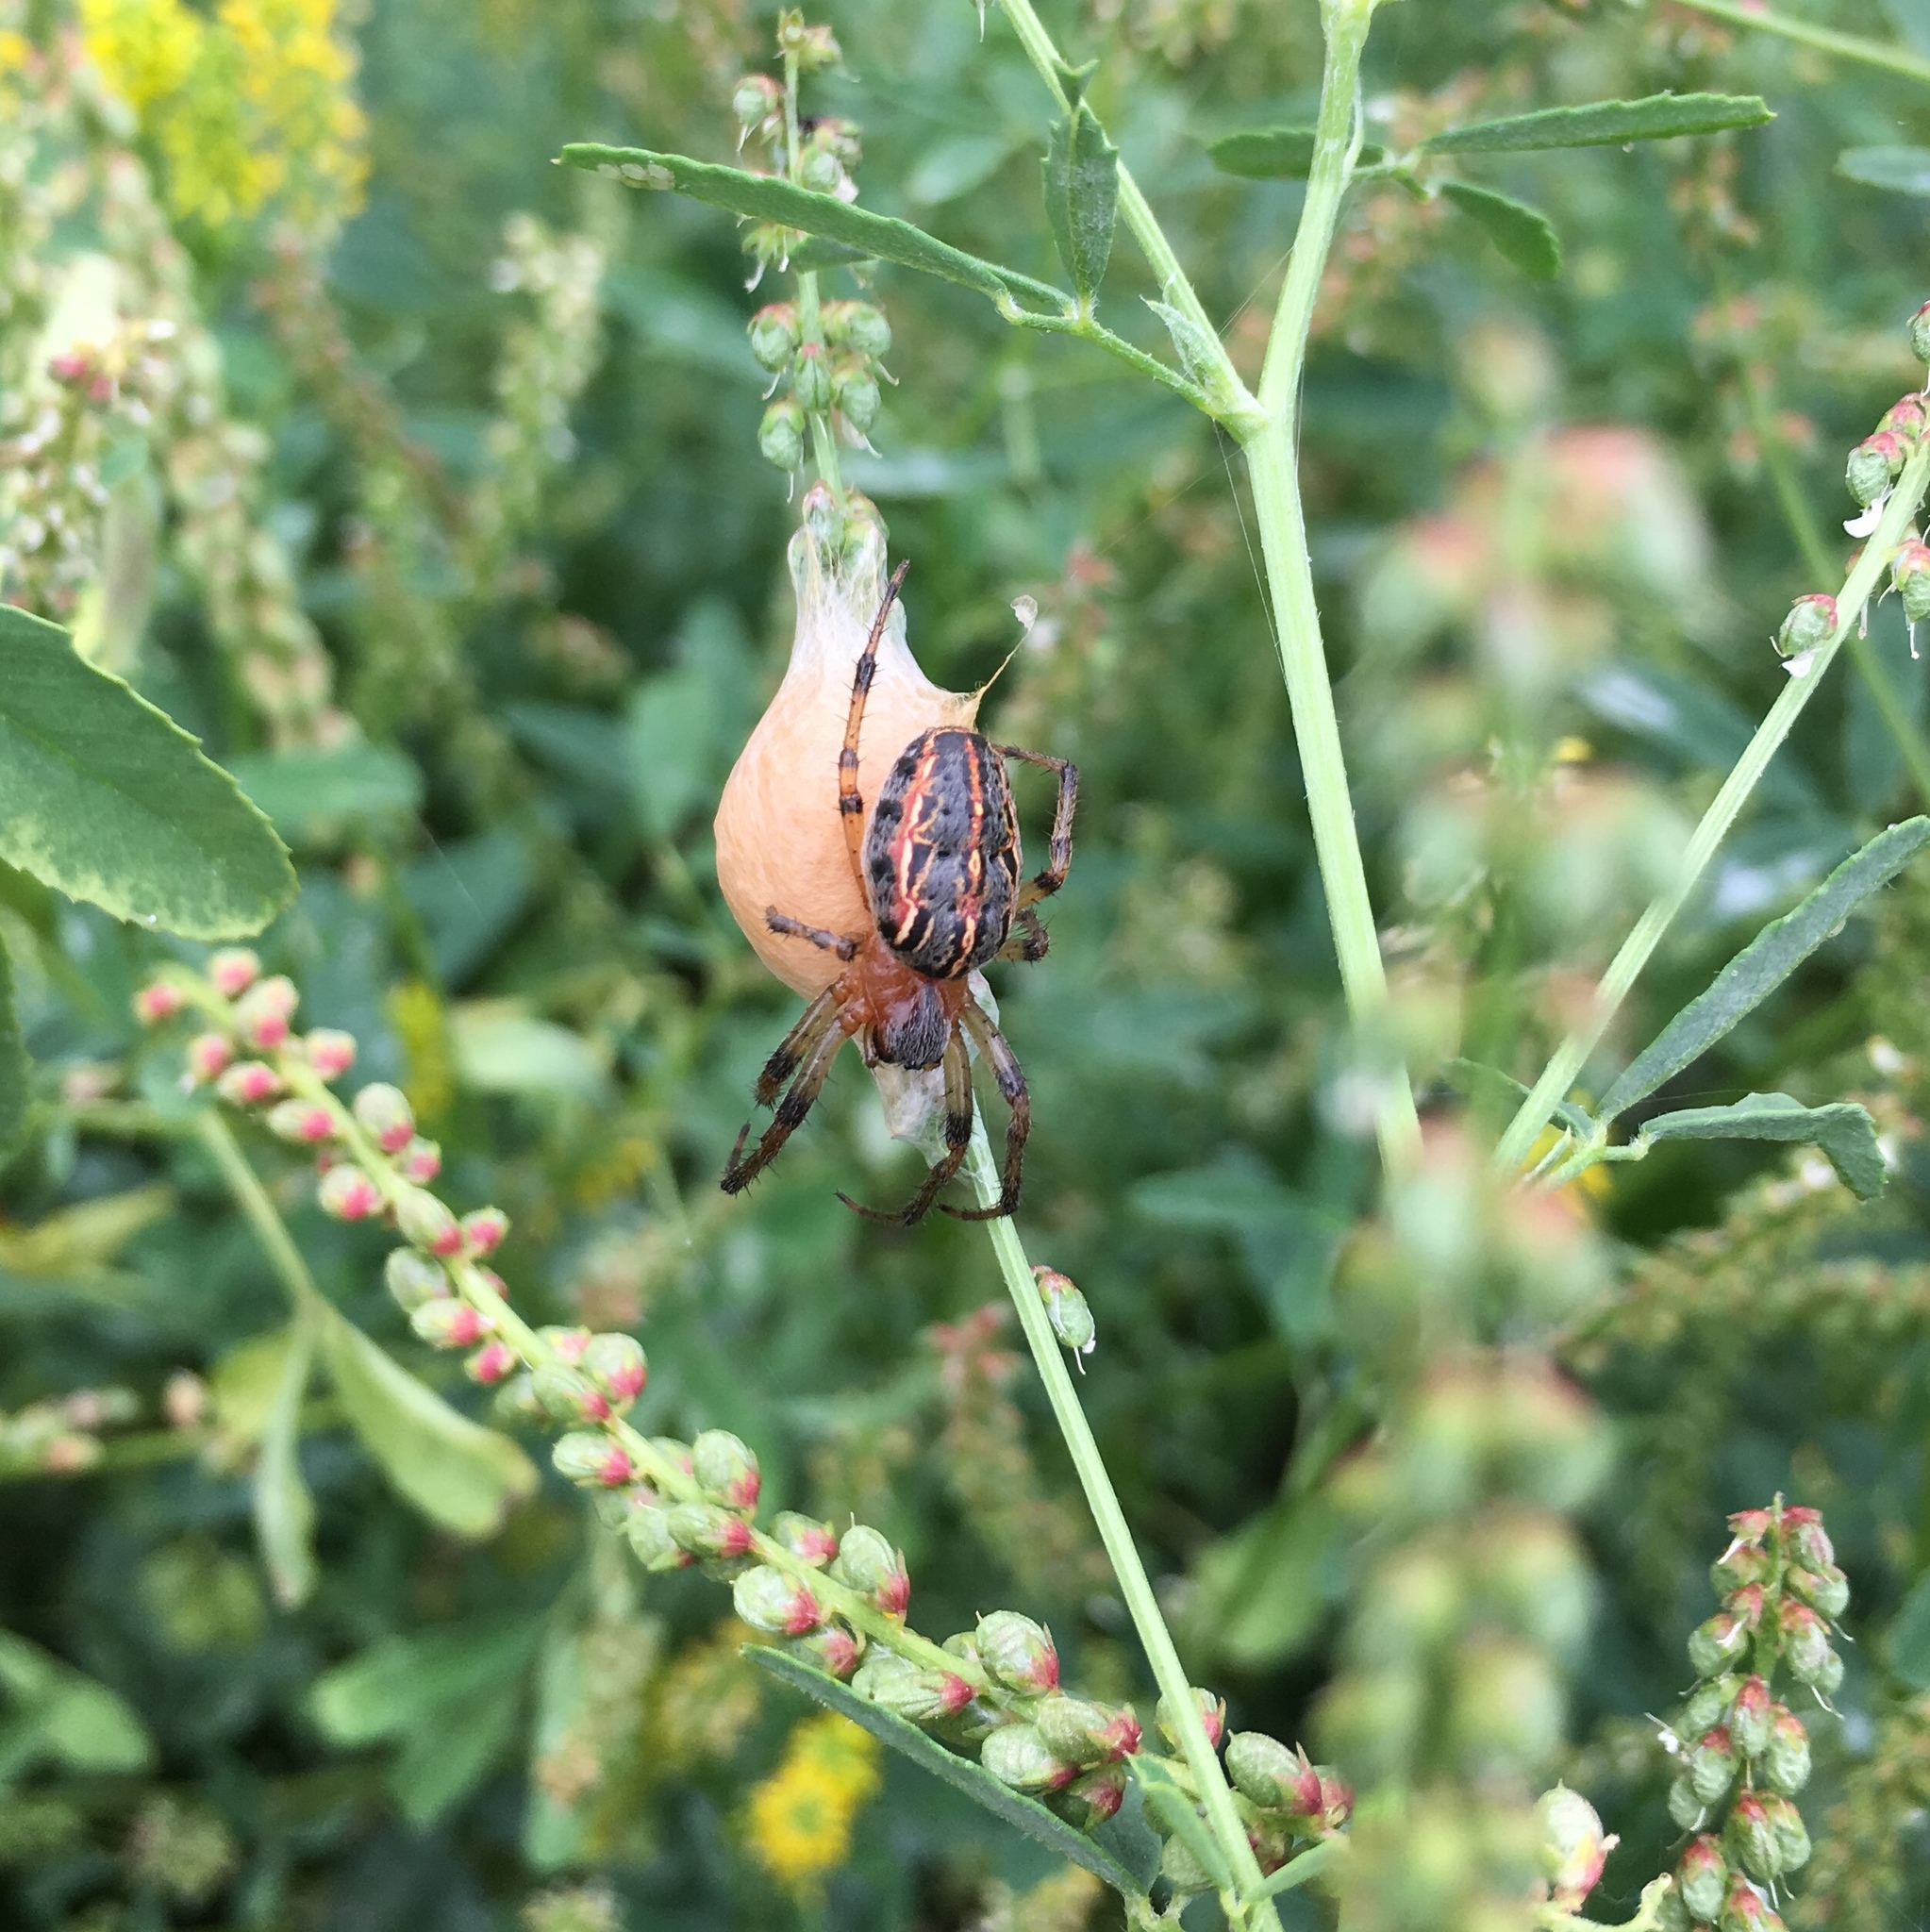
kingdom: Animalia
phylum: Arthropoda
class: Arachnida
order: Araneae
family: Araneidae
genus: Alpaida
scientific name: Alpaida veniliae
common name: Orb weavers
